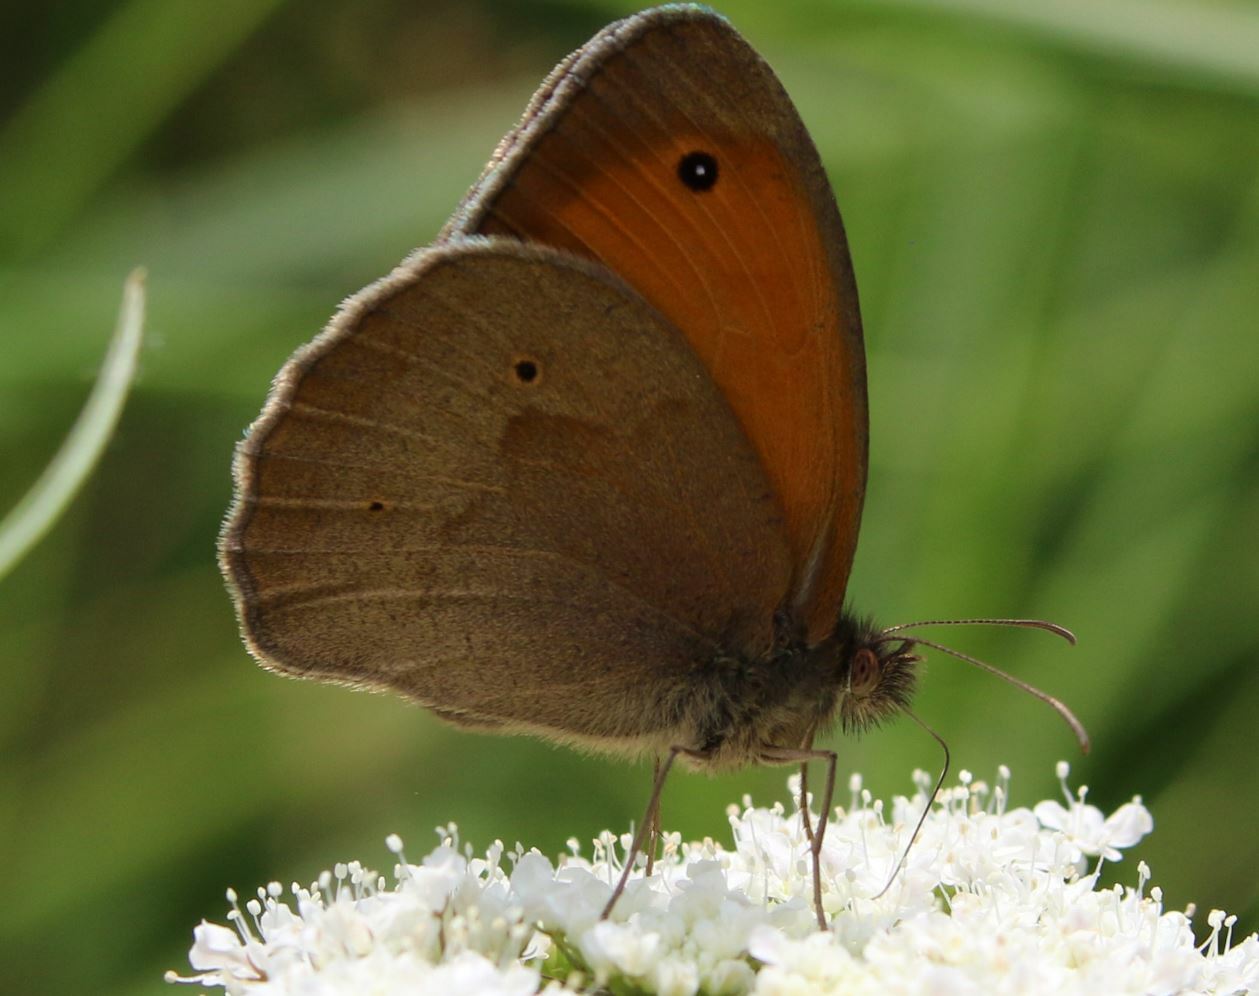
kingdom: Animalia
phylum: Arthropoda
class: Insecta
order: Lepidoptera
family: Nymphalidae
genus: Maniola
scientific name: Maniola jurtina
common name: Meadow brown
